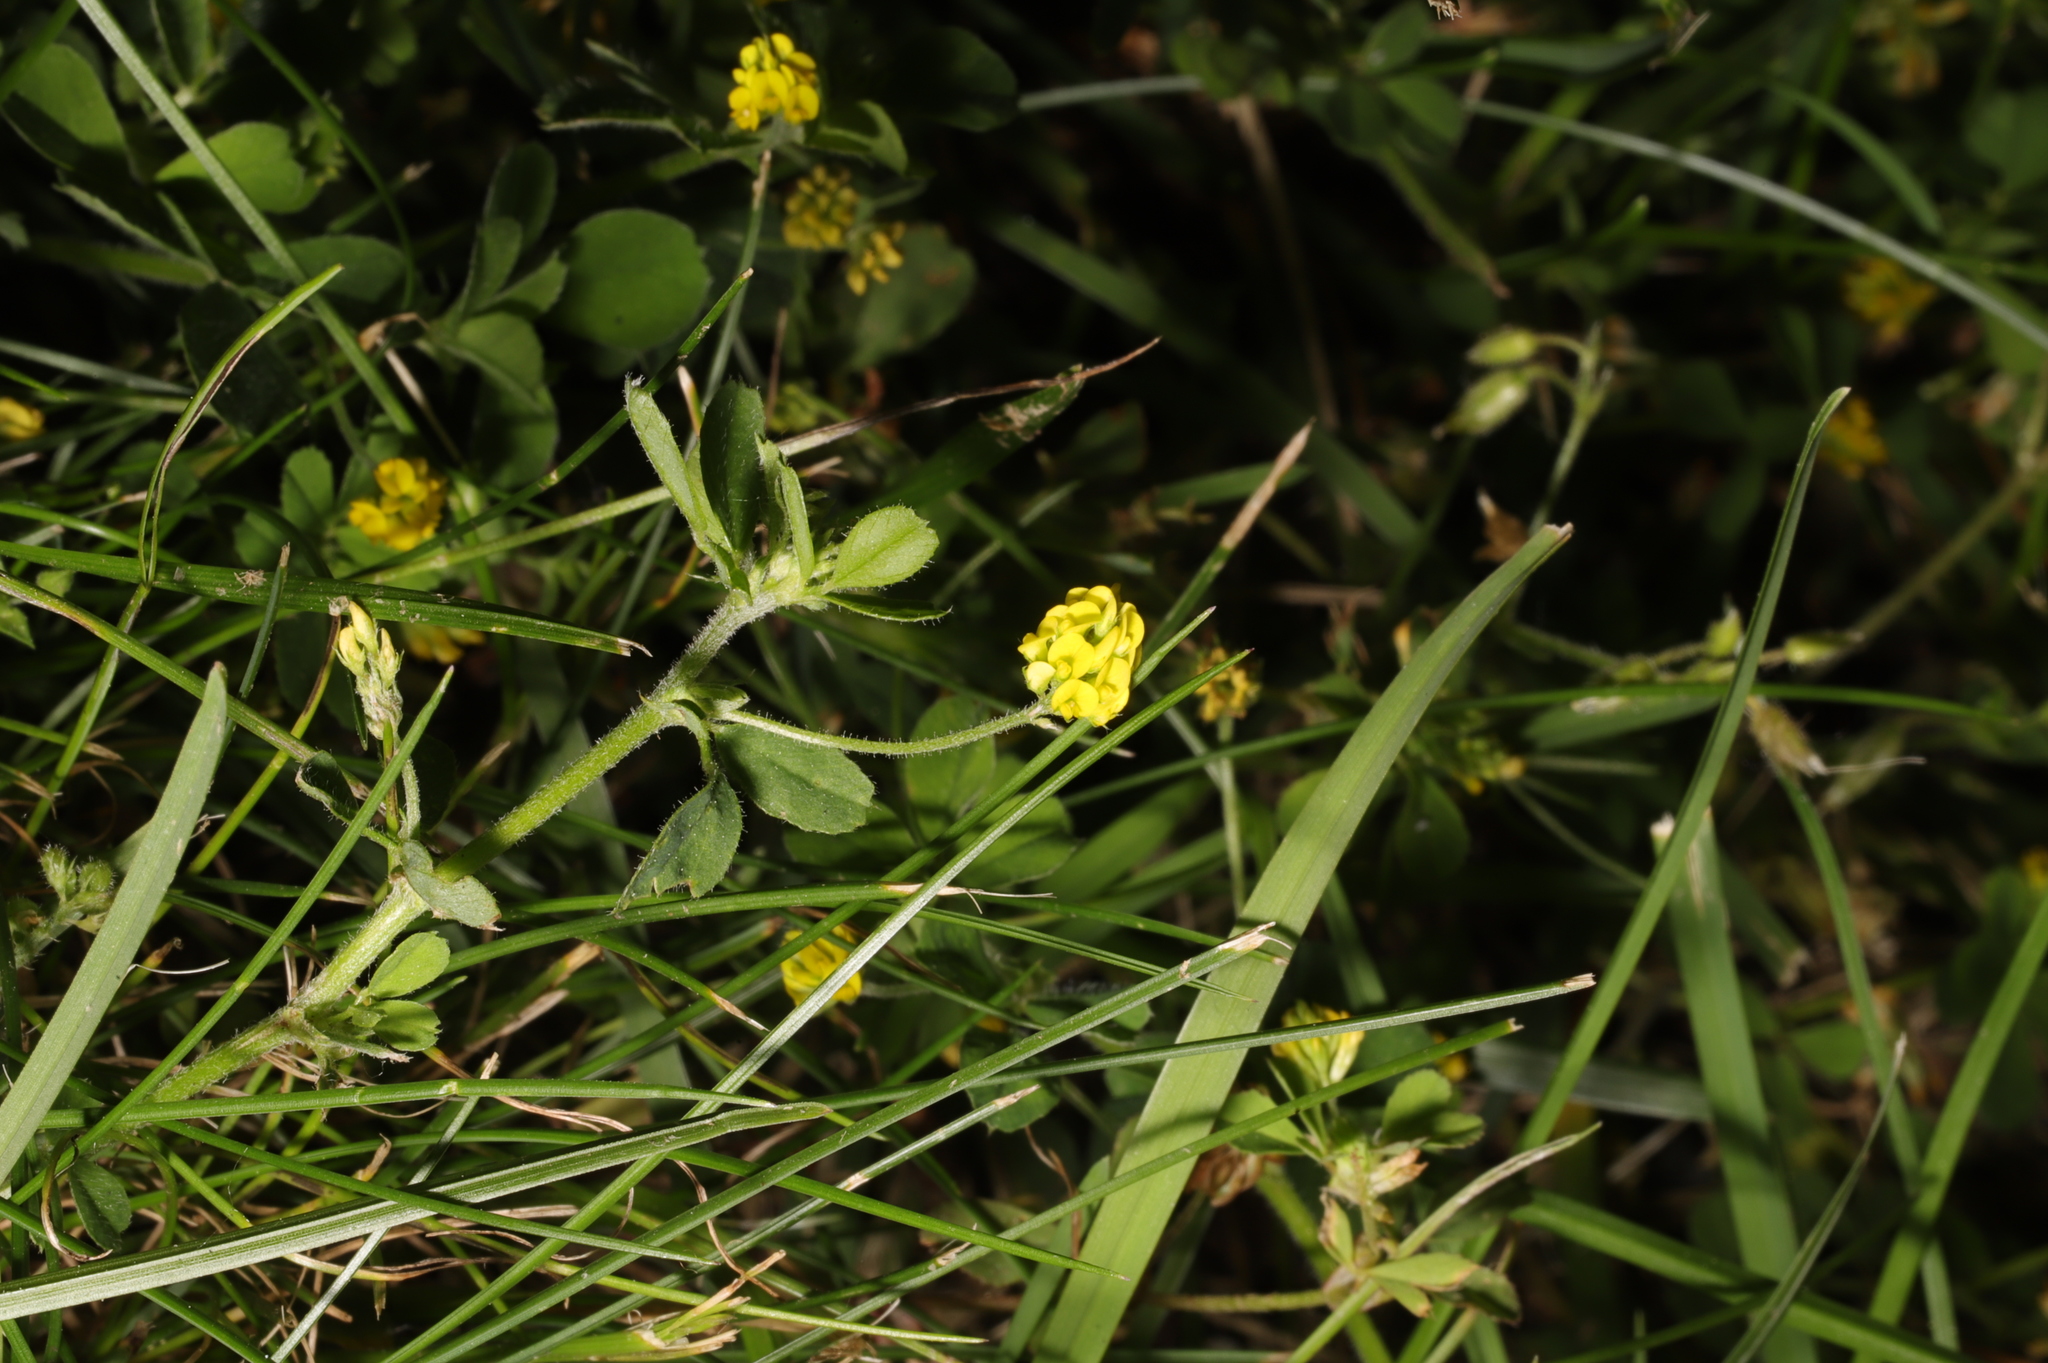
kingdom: Plantae
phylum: Tracheophyta
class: Magnoliopsida
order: Fabales
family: Fabaceae
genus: Medicago
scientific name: Medicago lupulina
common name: Black medick
